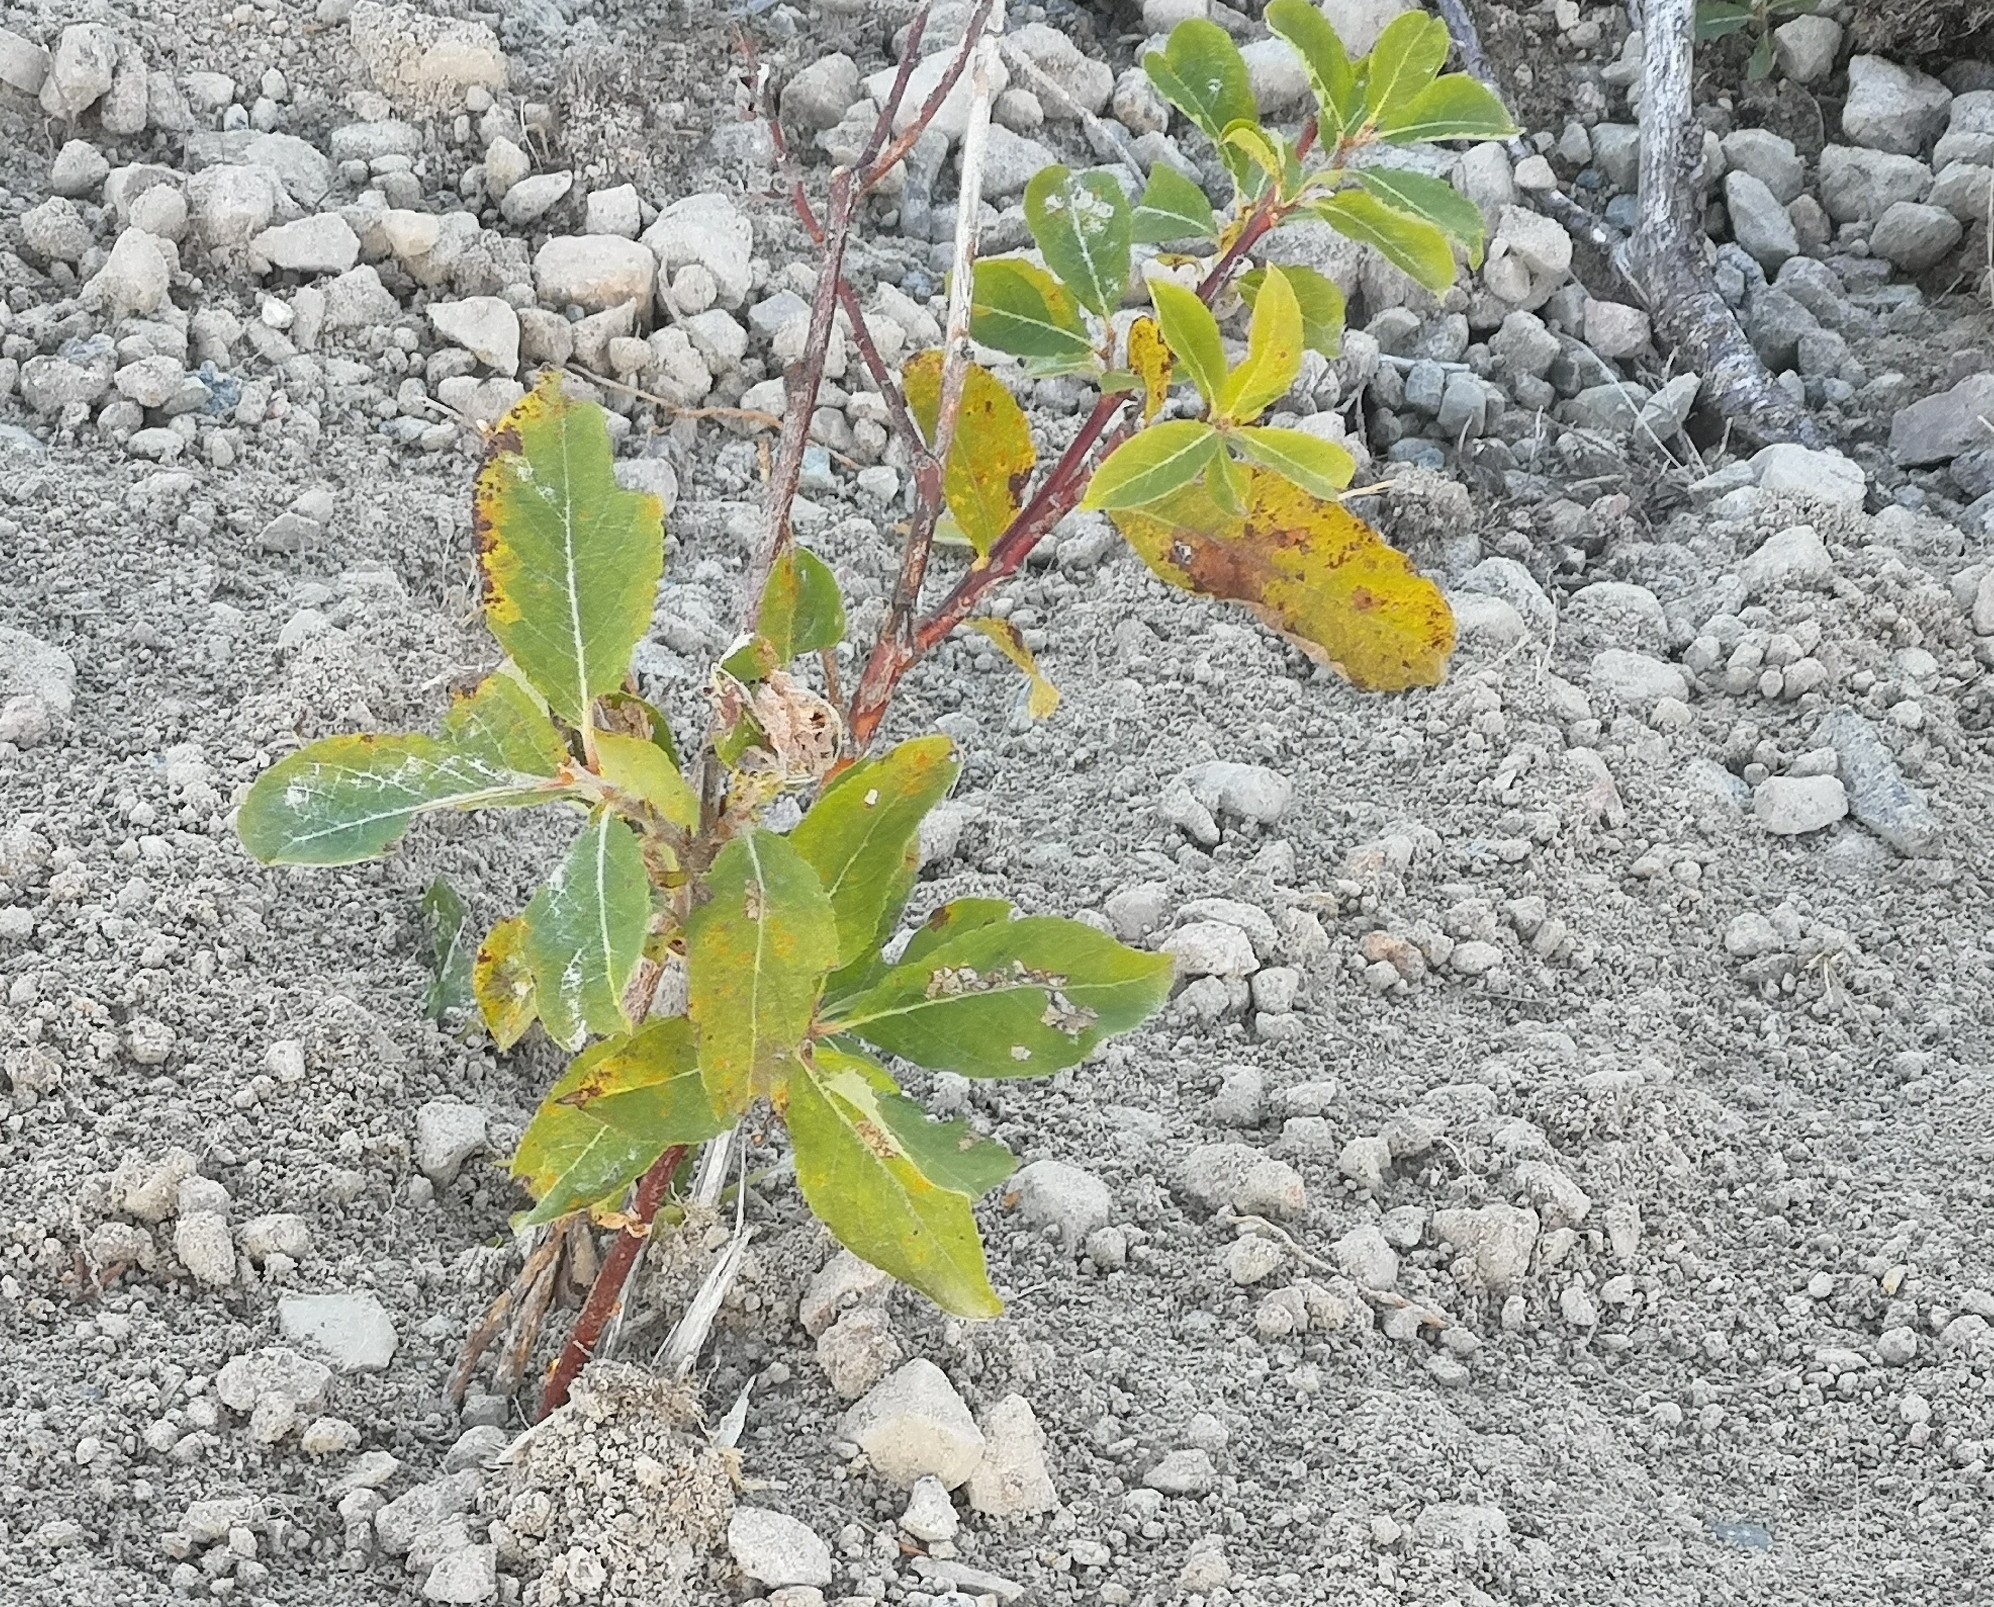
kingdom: Plantae
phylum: Tracheophyta
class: Magnoliopsida
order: Malpighiales
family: Salicaceae
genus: Salix
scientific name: Salix caprea
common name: Goat willow
